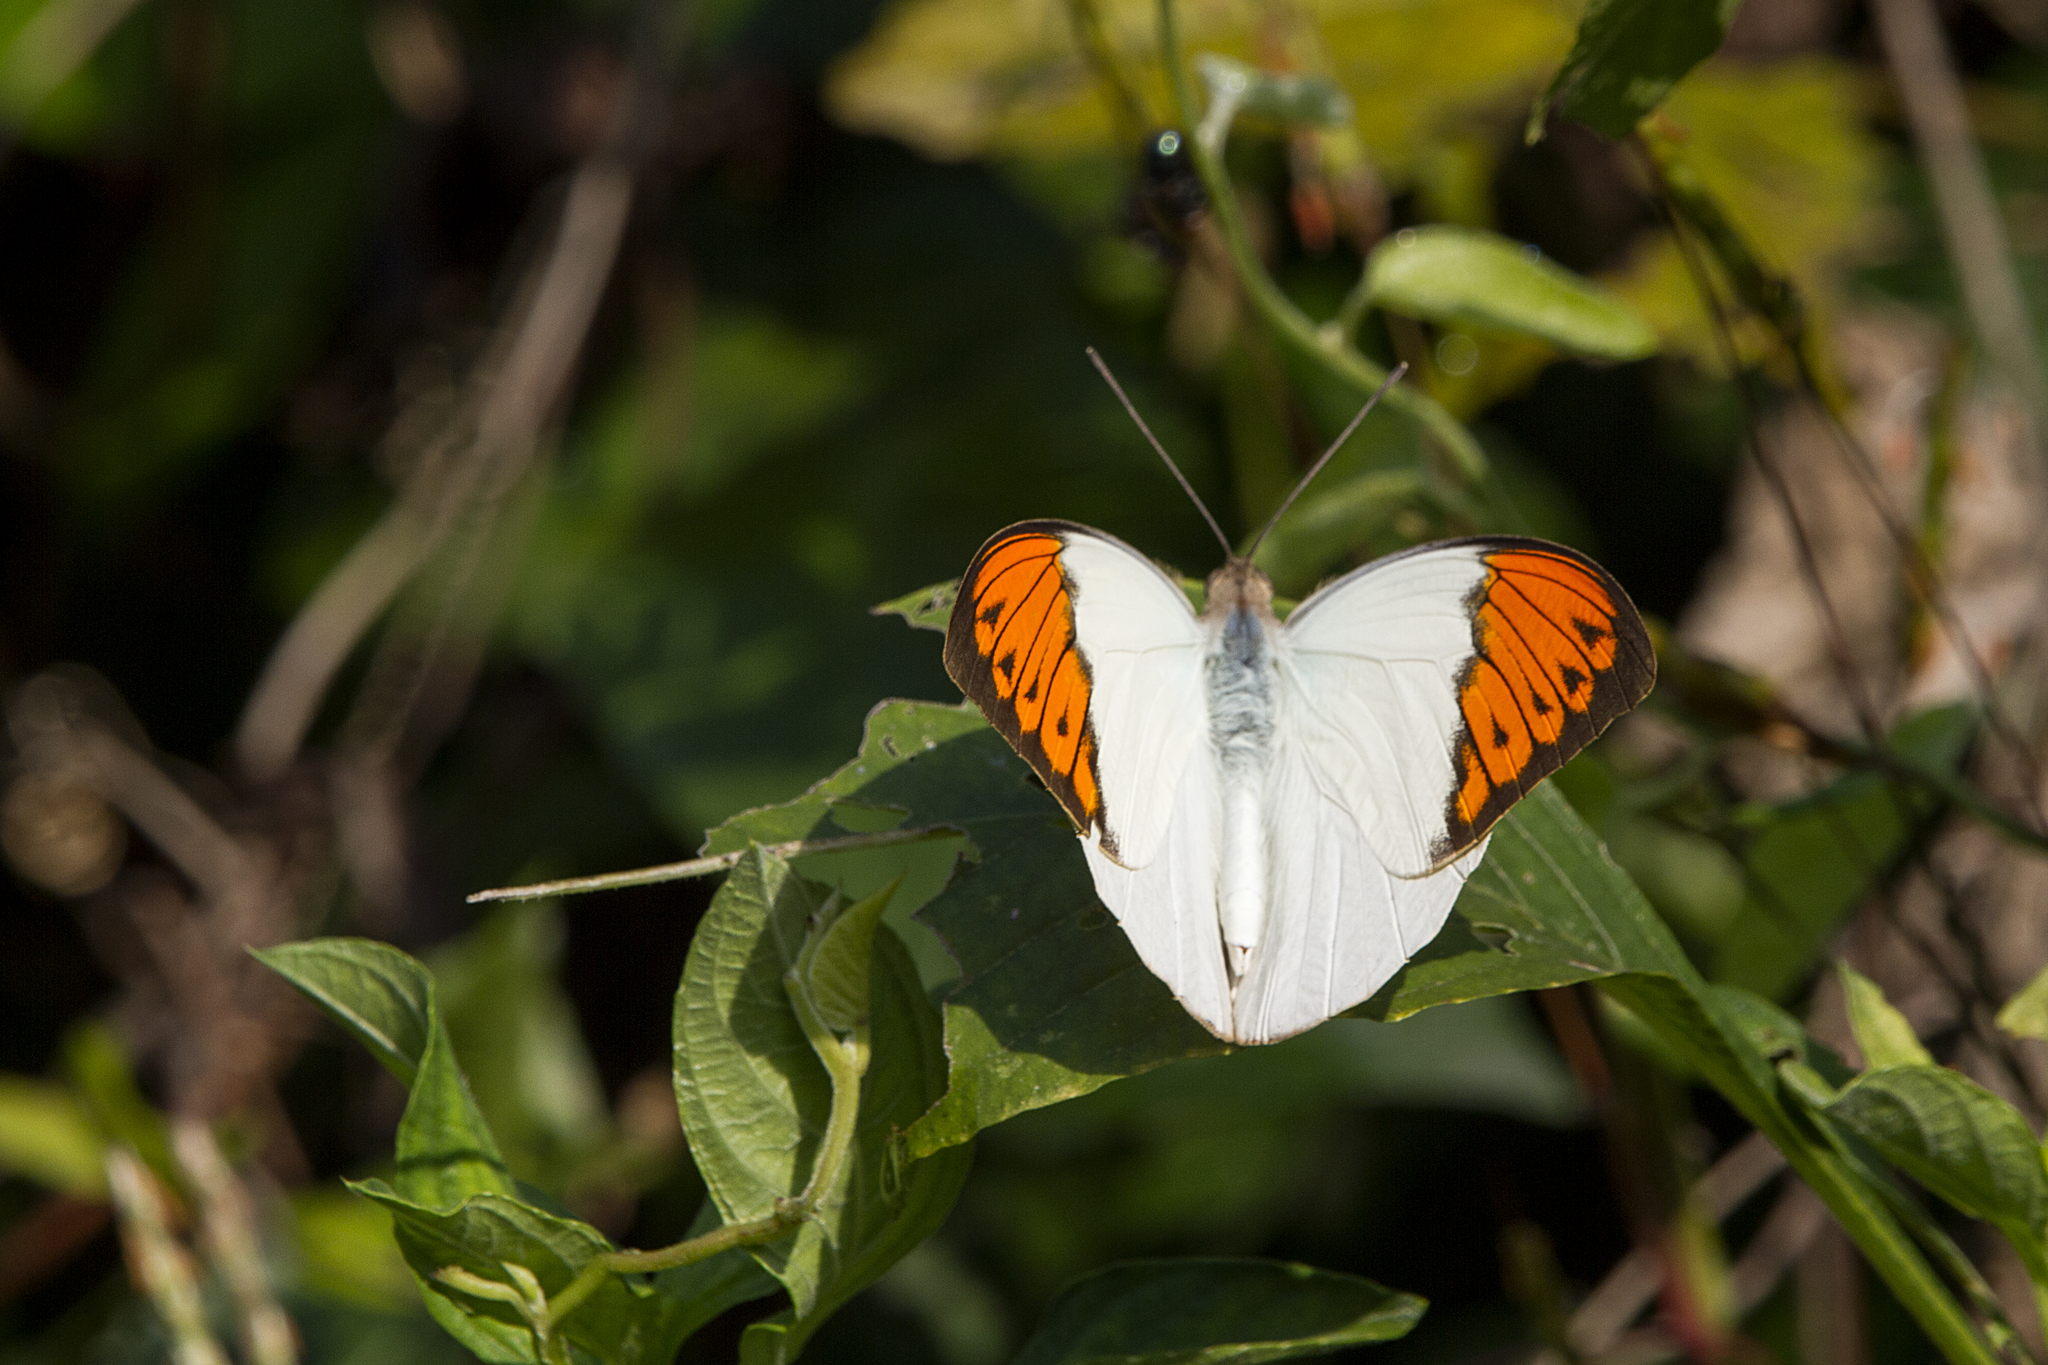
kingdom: Animalia
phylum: Arthropoda
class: Insecta
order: Lepidoptera
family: Pieridae
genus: Hebomoia
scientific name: Hebomoia glaucippe
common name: Great orange tip
